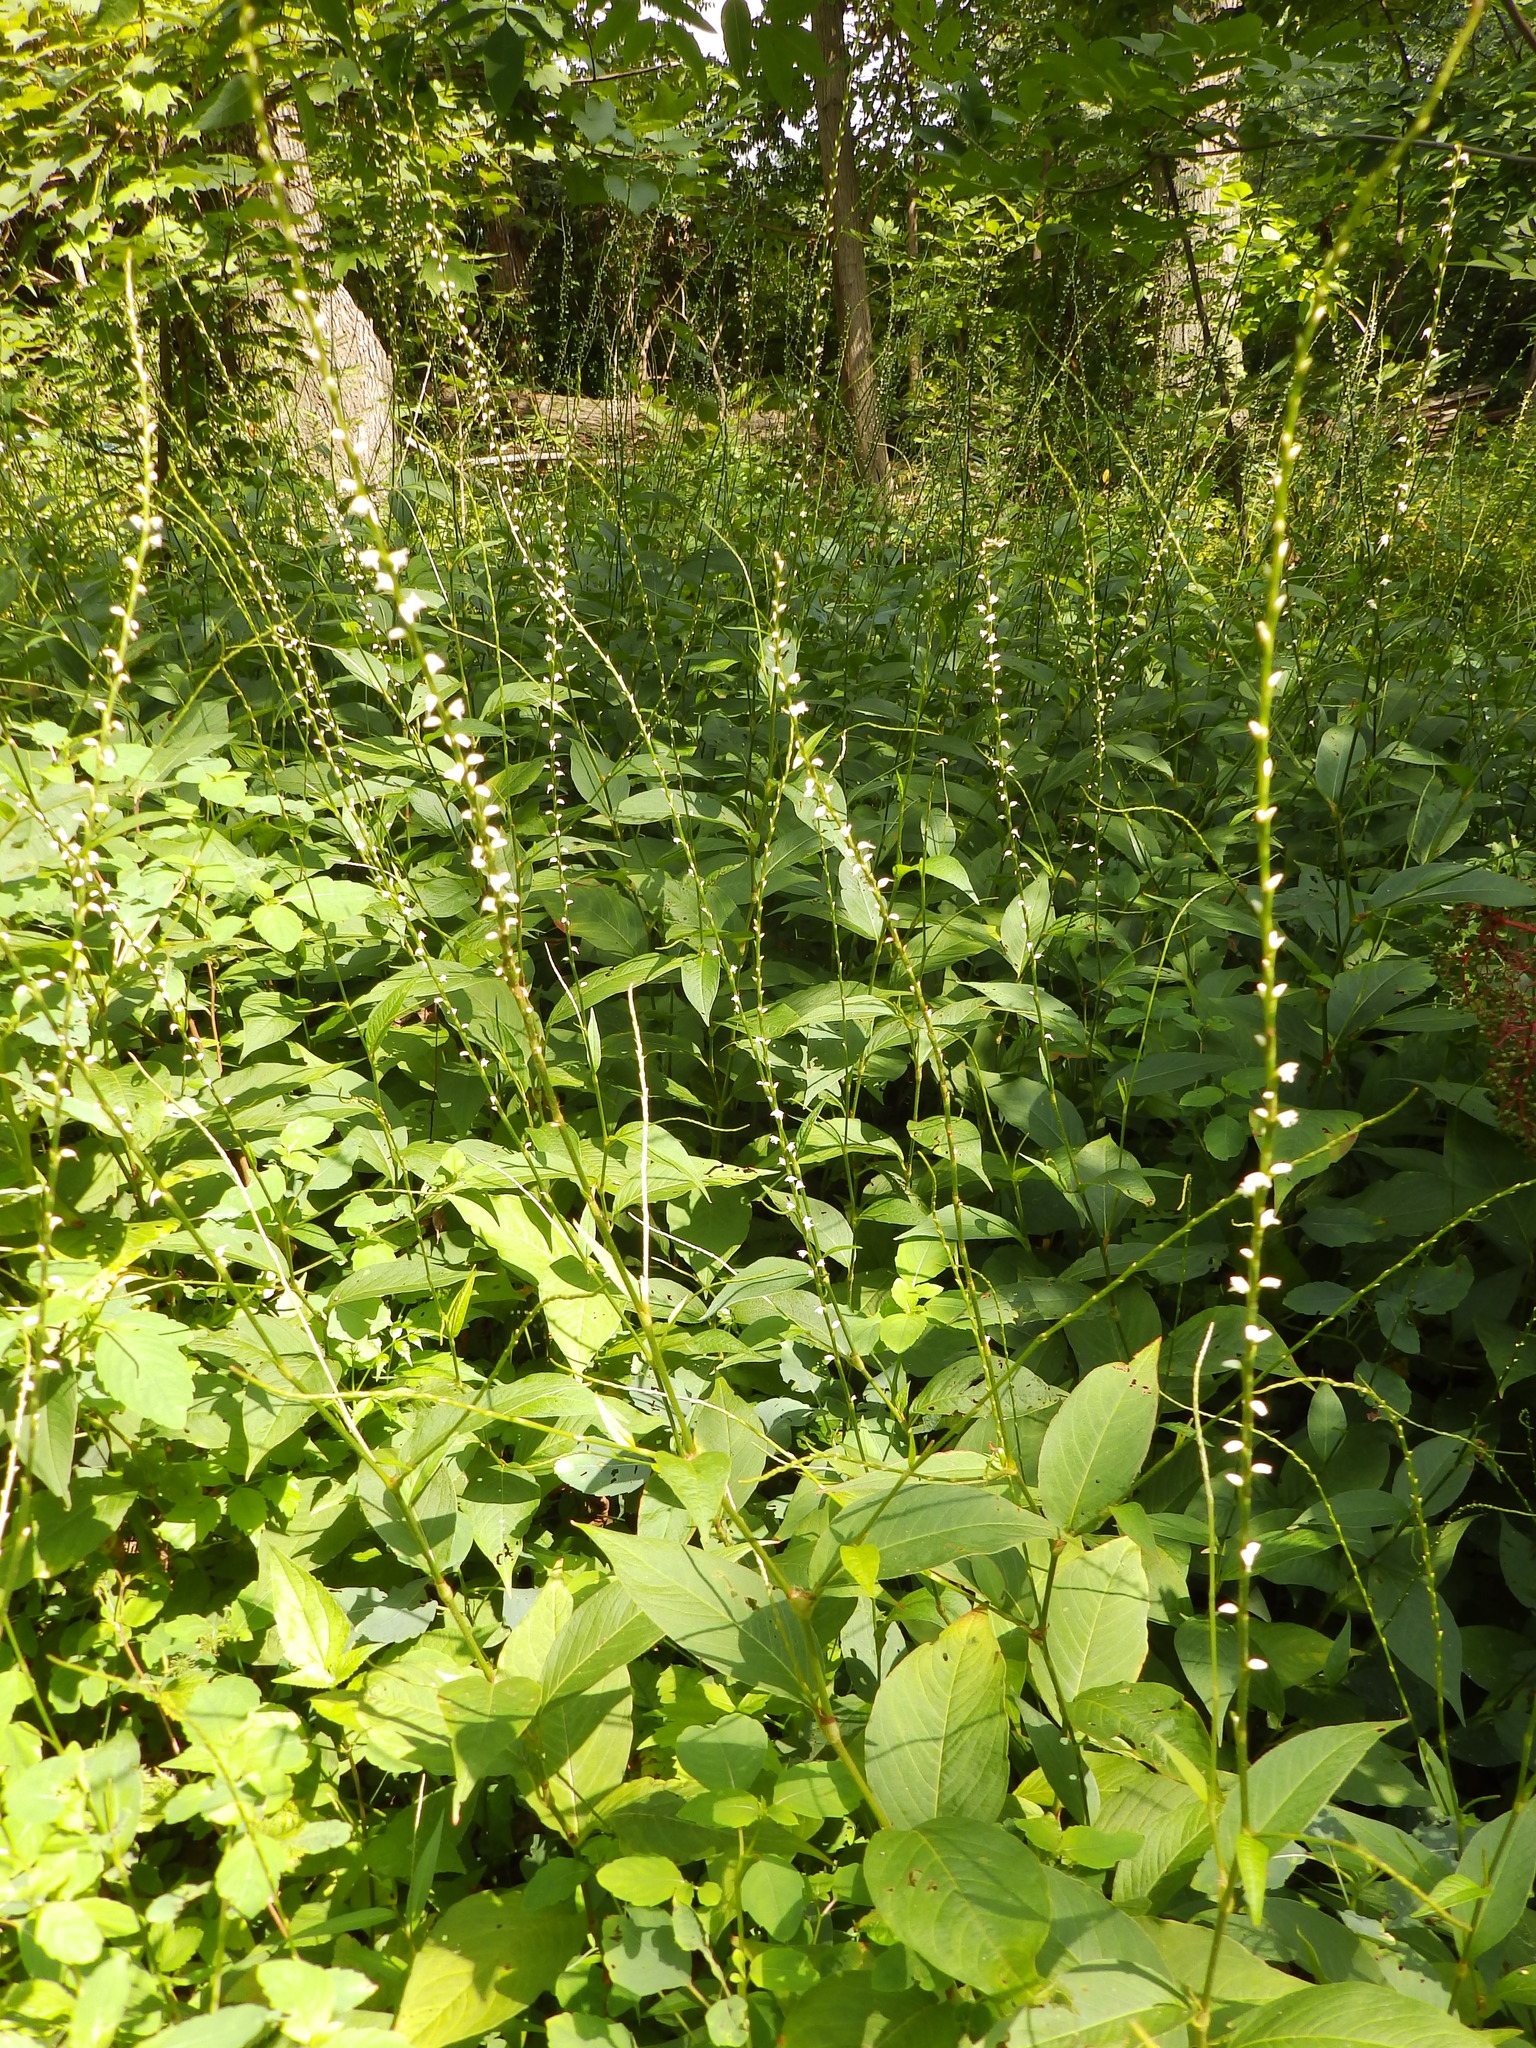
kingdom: Plantae
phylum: Tracheophyta
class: Magnoliopsida
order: Caryophyllales
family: Polygonaceae
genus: Persicaria
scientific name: Persicaria virginiana
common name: Jumpseed
